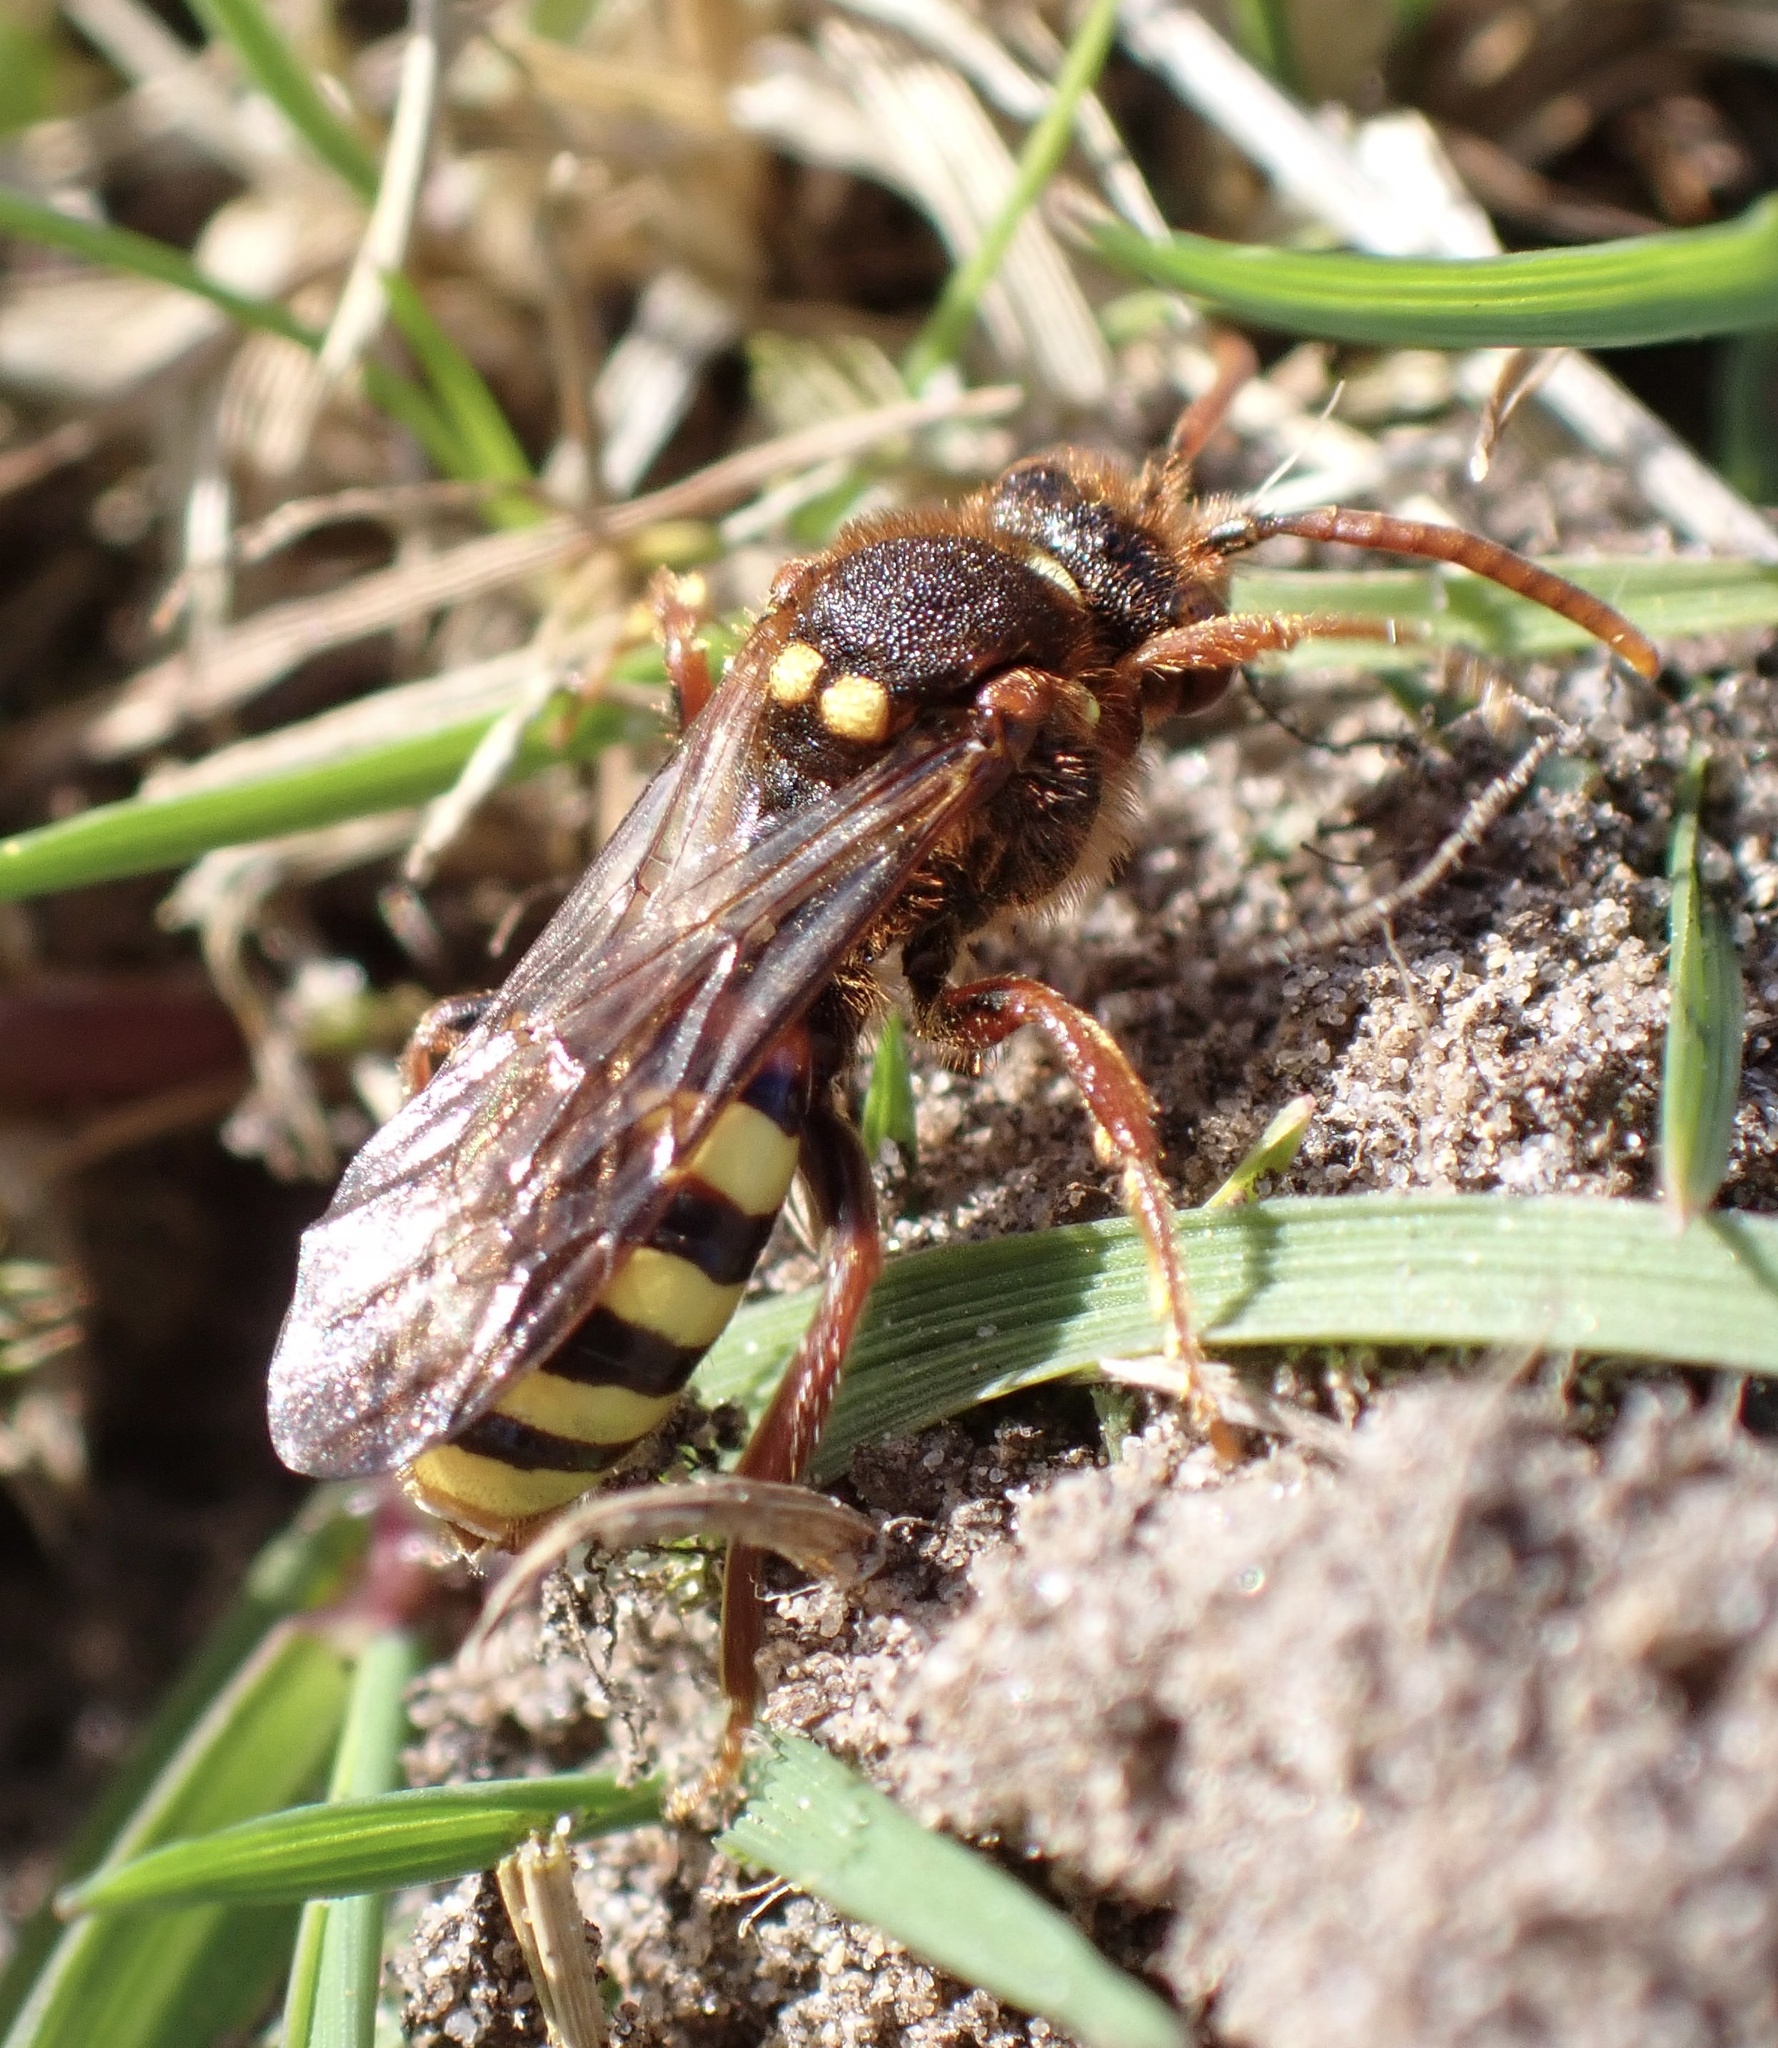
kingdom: Animalia
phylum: Arthropoda
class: Insecta
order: Hymenoptera
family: Apidae
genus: Nomada
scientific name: Nomada lathburiana
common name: Lathbury's nomad bee
